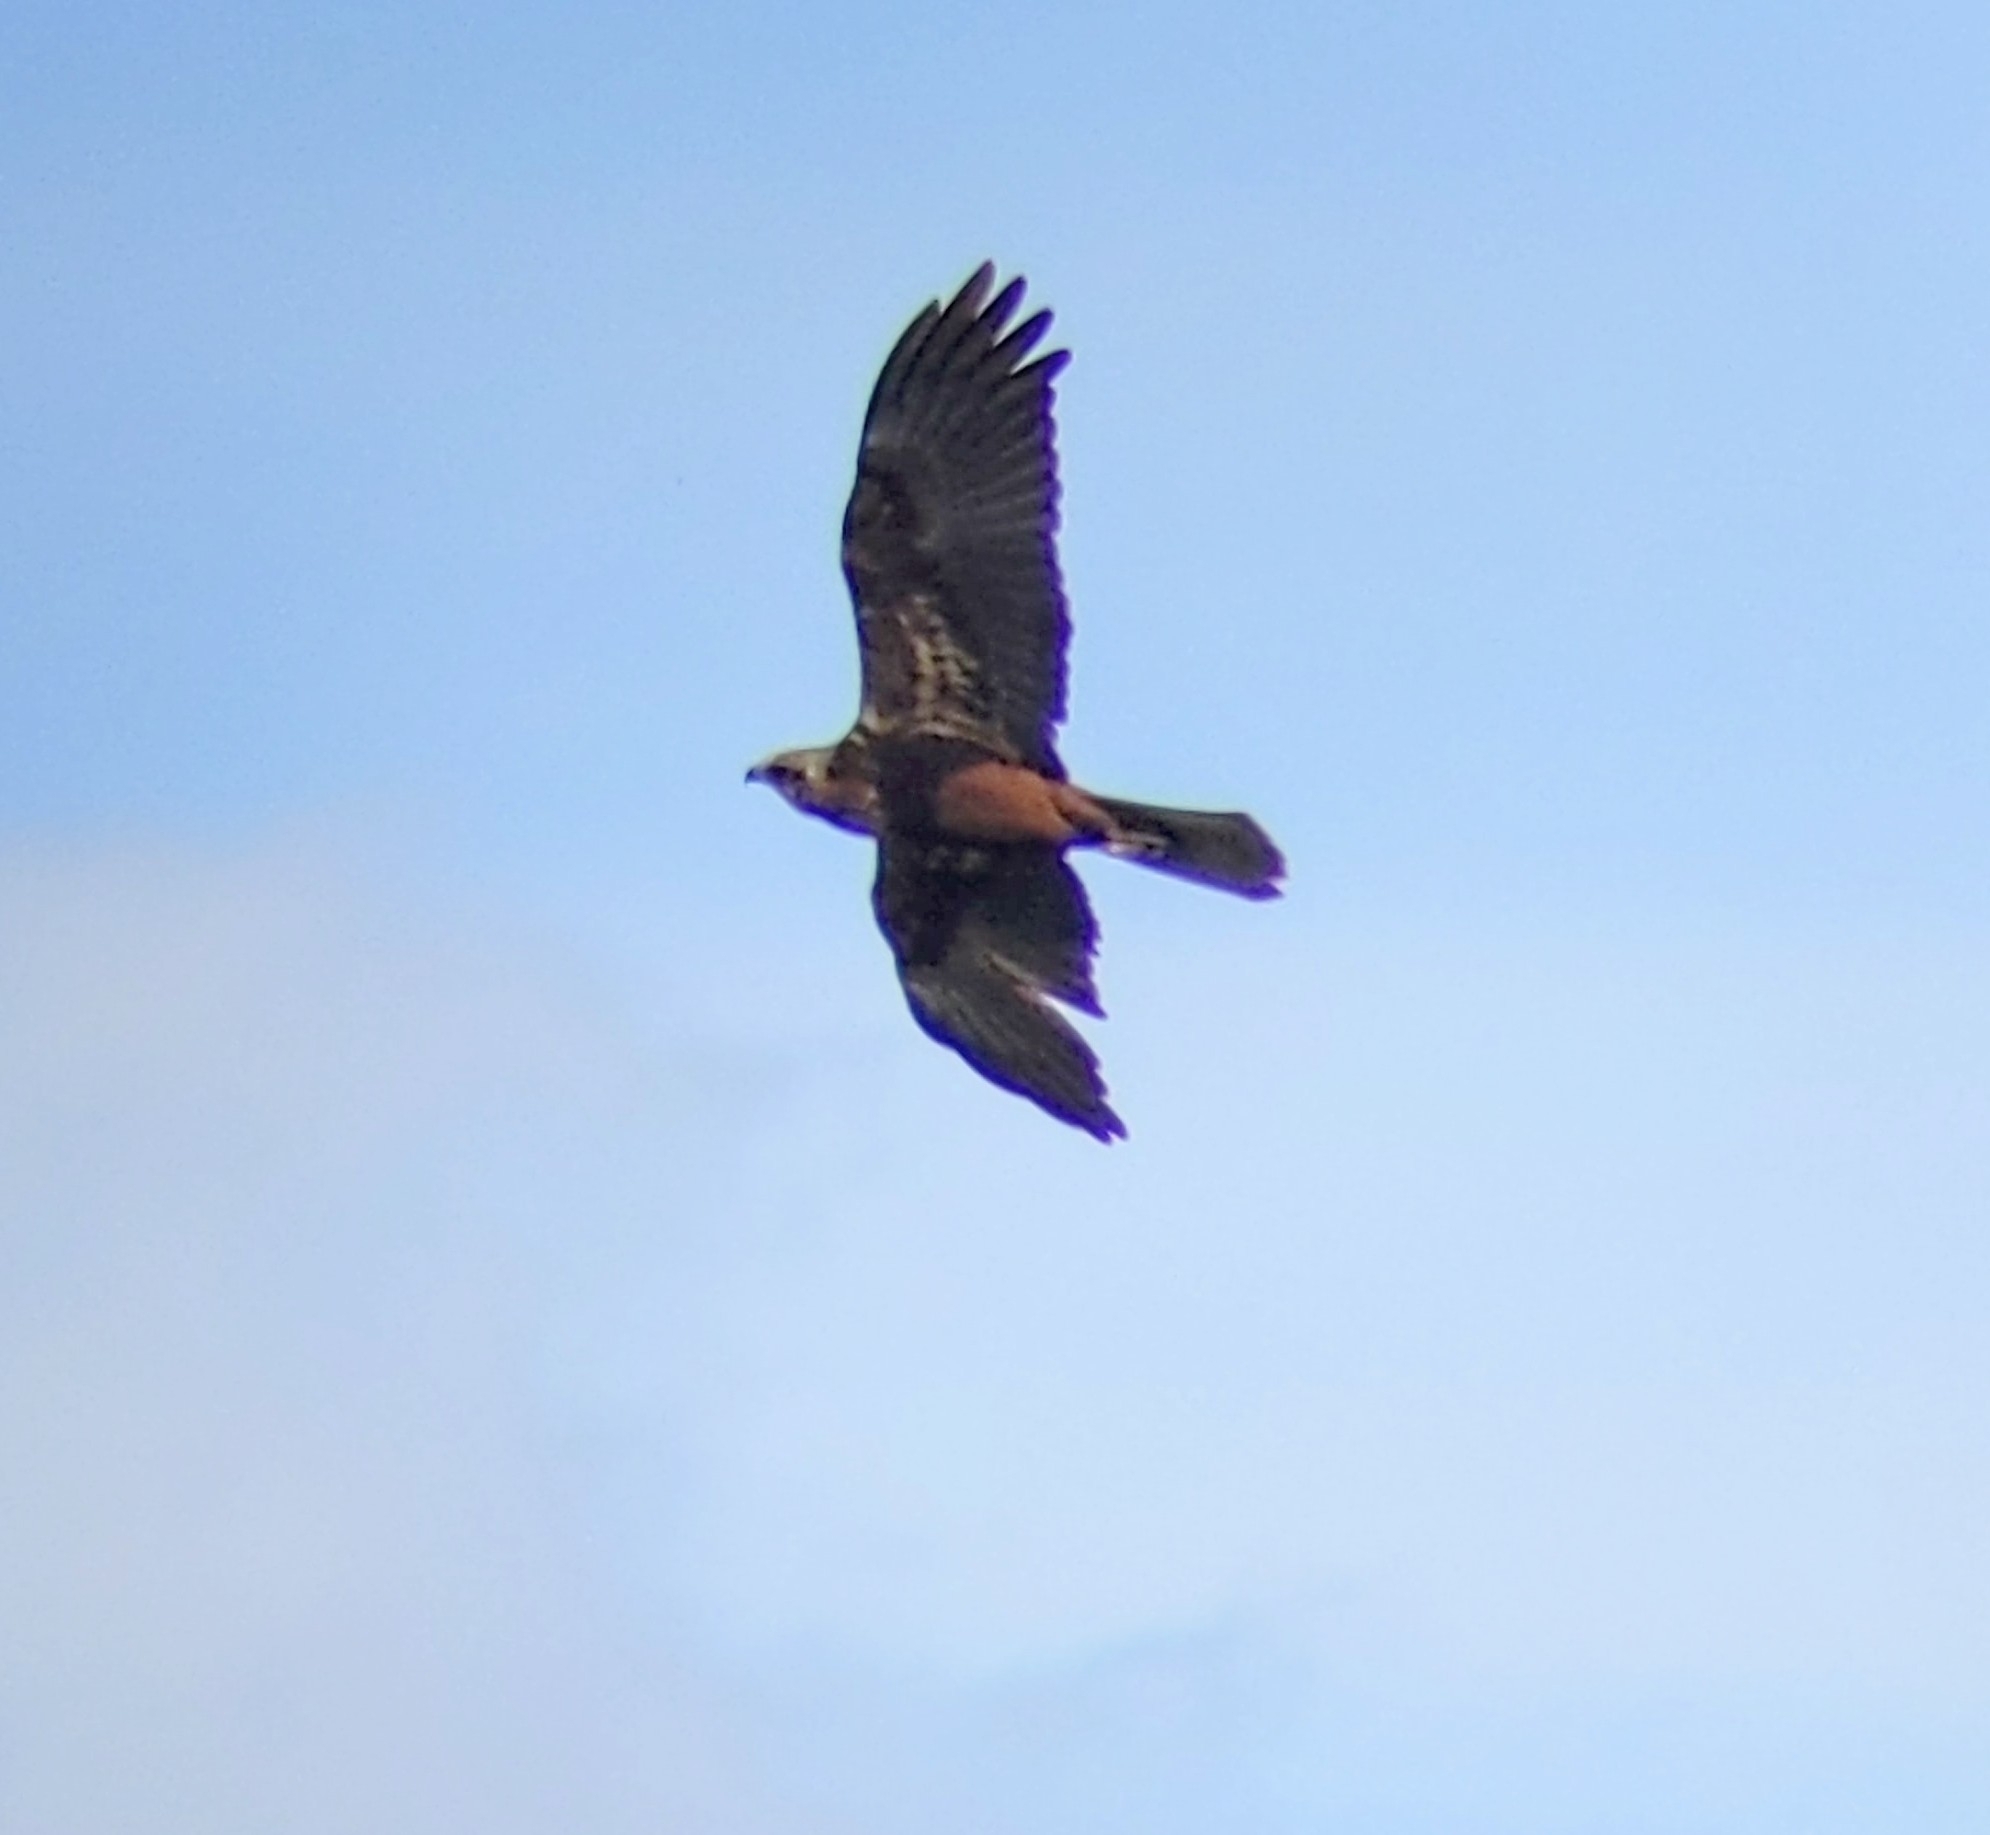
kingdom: Animalia
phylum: Chordata
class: Aves
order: Accipitriformes
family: Accipitridae
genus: Circus
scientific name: Circus aeruginosus
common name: Western marsh harrier
